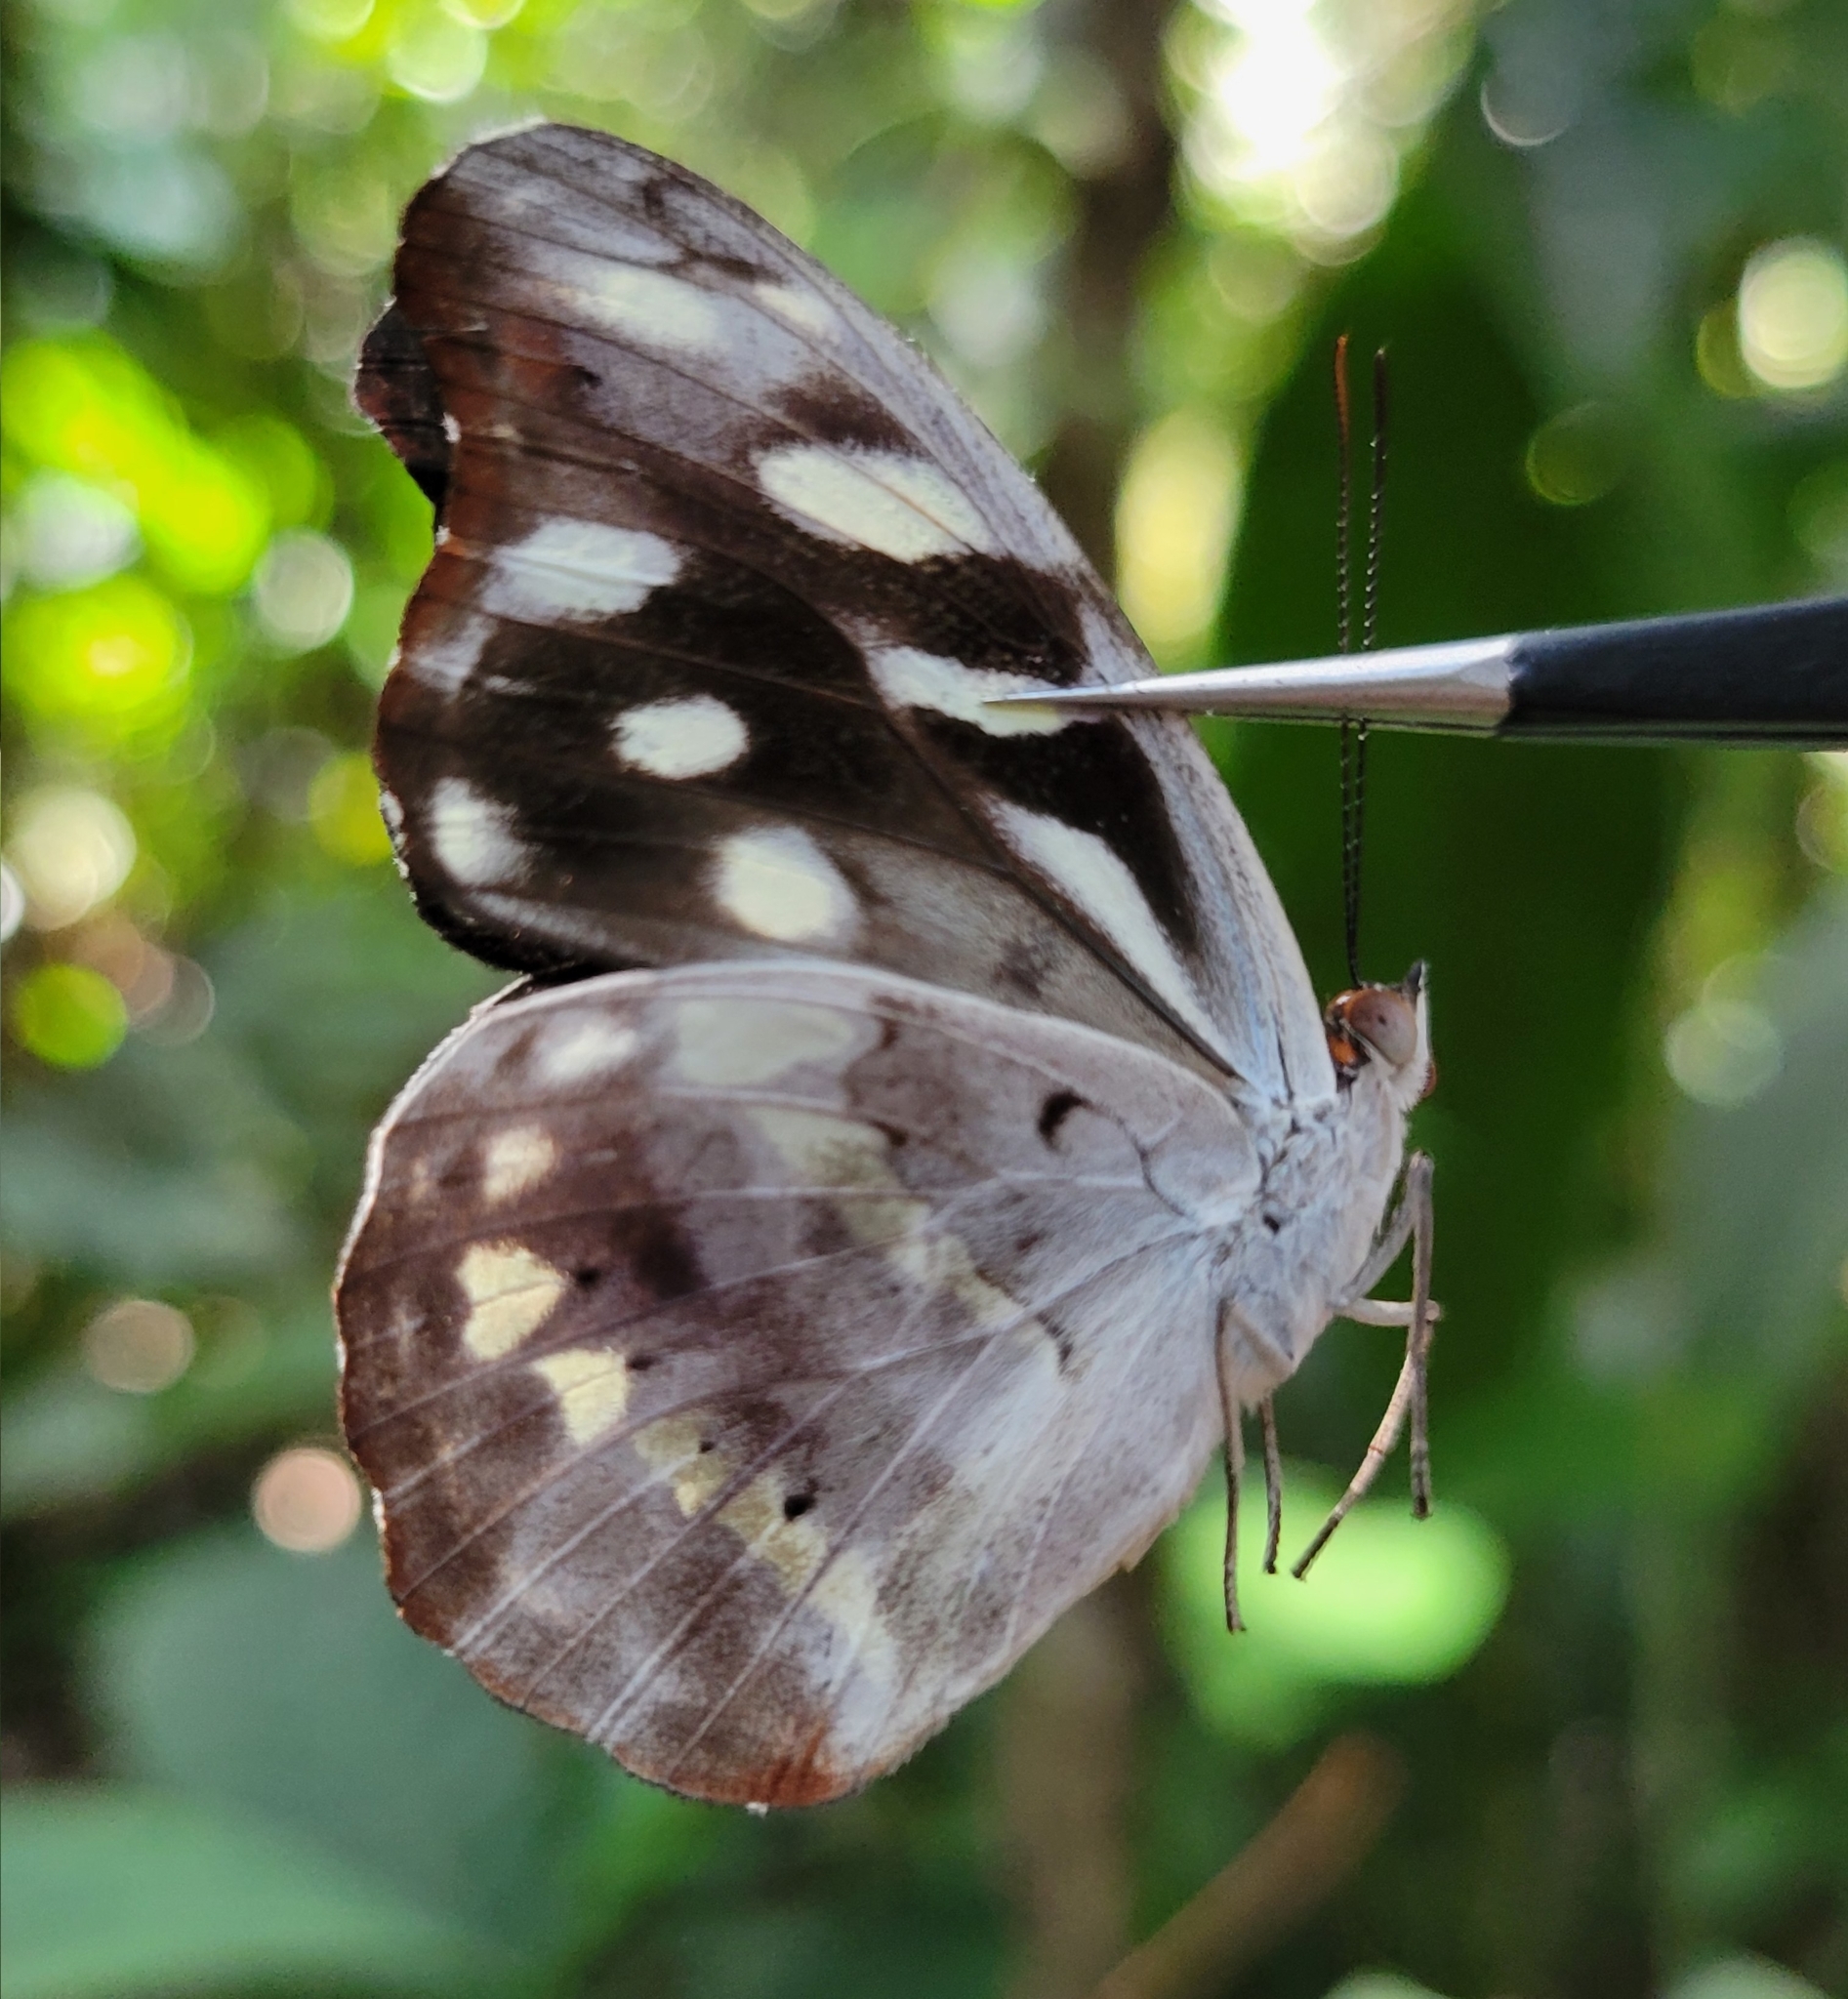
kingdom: Animalia
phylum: Arthropoda
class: Insecta
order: Lepidoptera
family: Nymphalidae
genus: Catonephele
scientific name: Catonephele acontius
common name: Unspotted firewing
